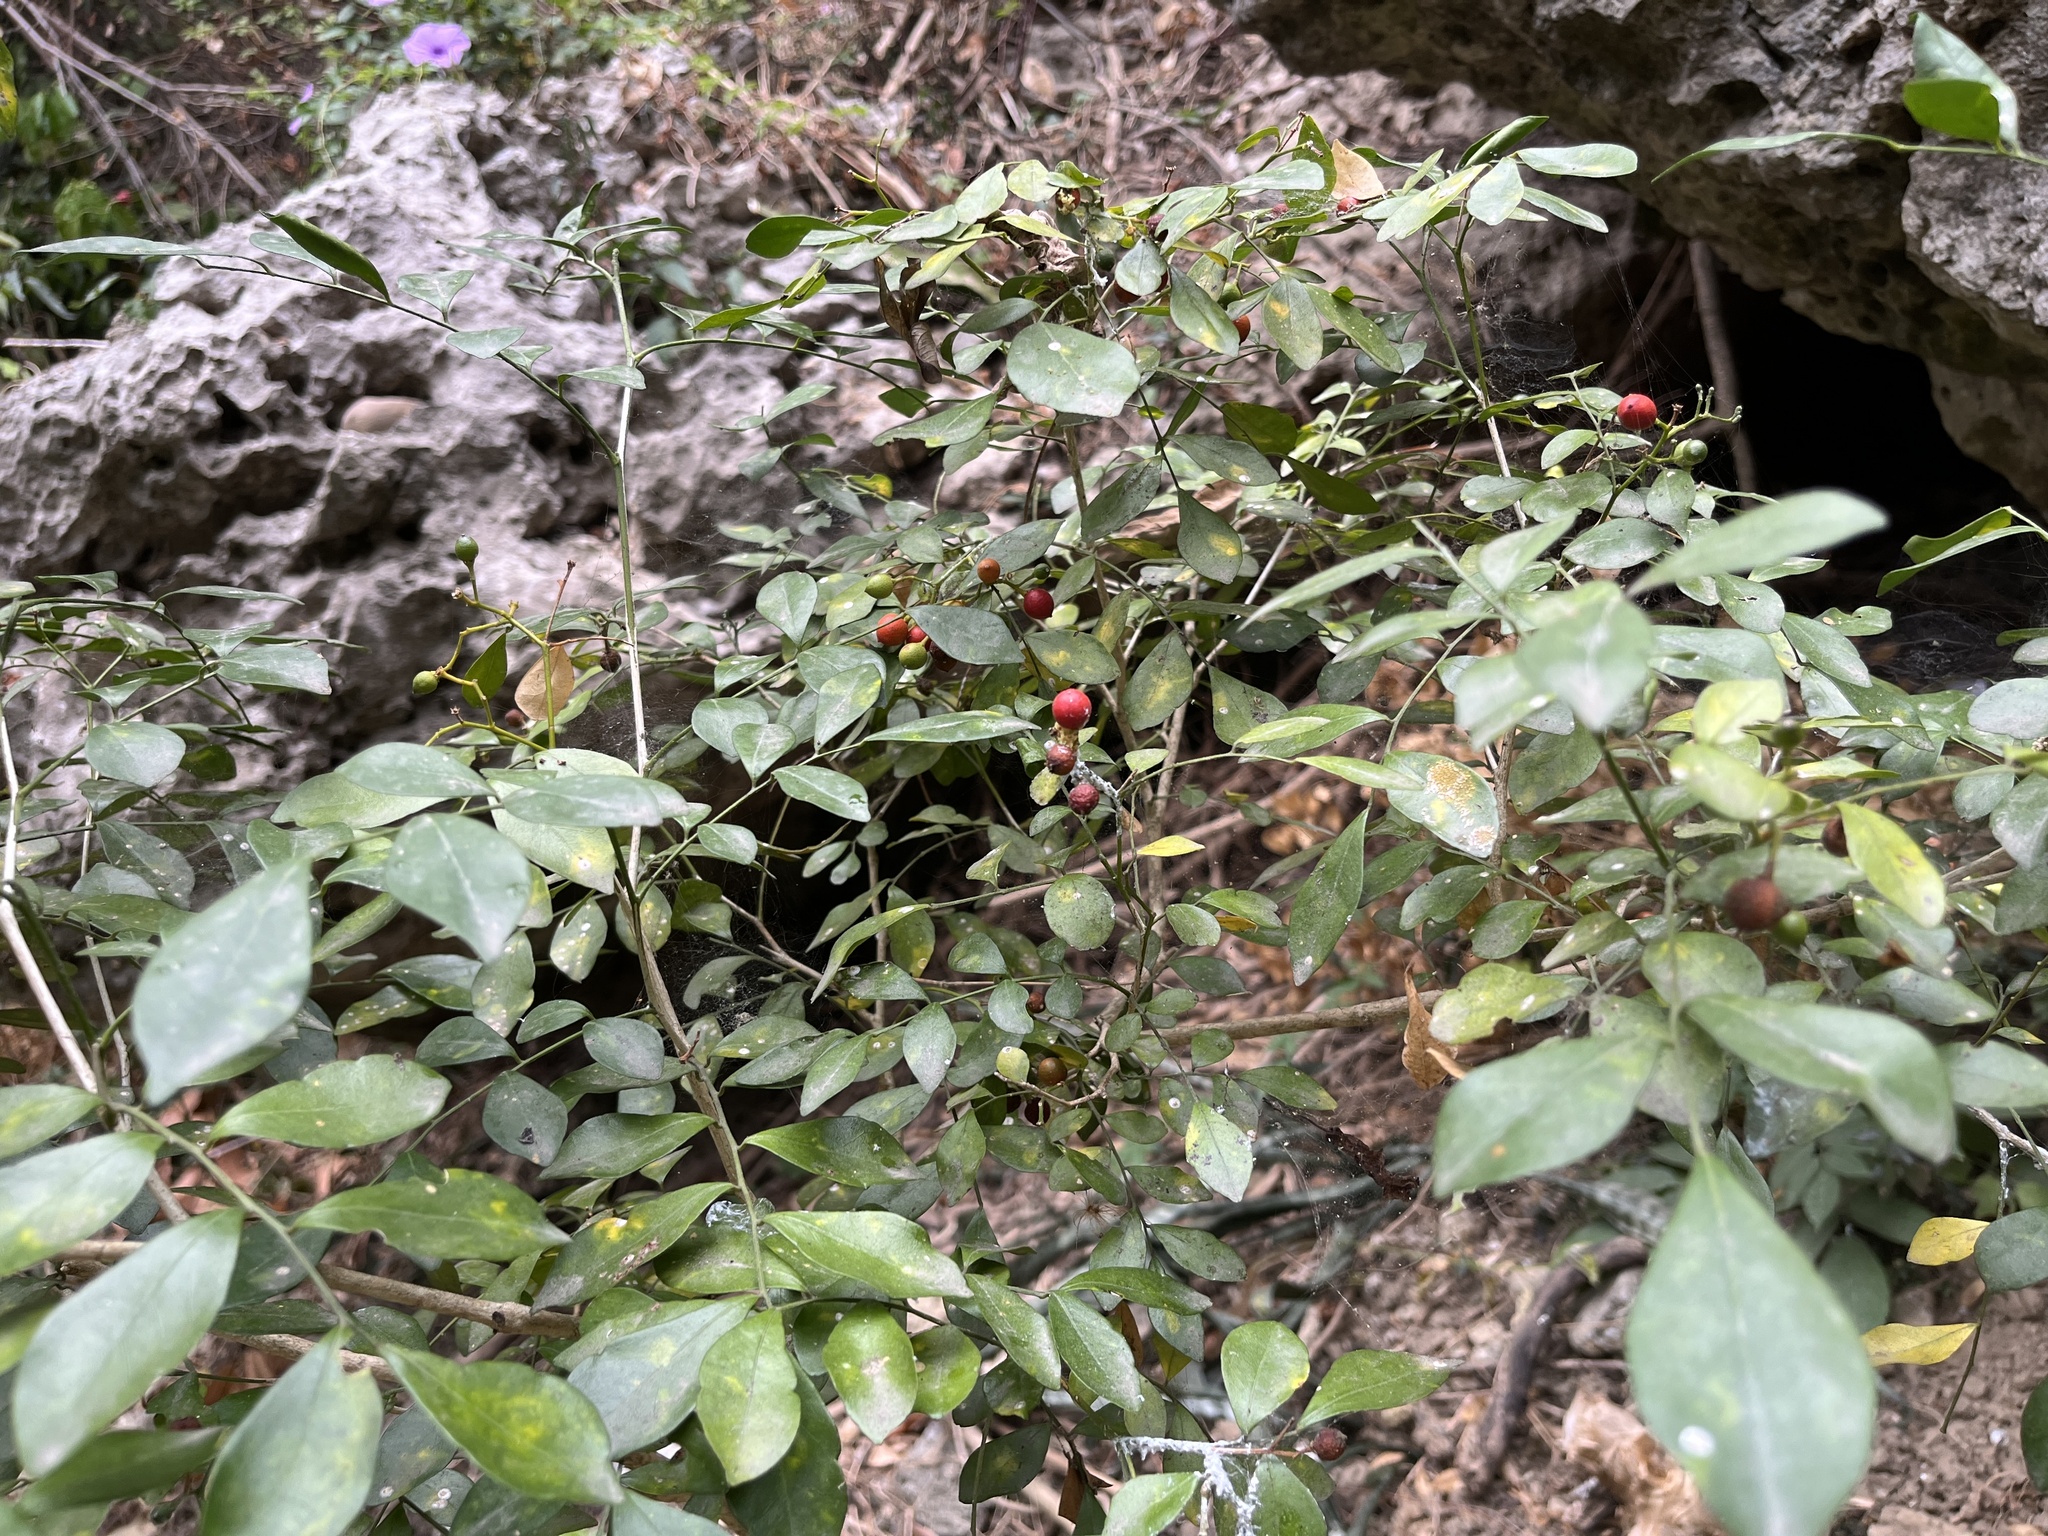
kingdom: Plantae
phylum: Tracheophyta
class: Magnoliopsida
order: Sapindales
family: Rutaceae
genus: Murraya
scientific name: Murraya paniculata
